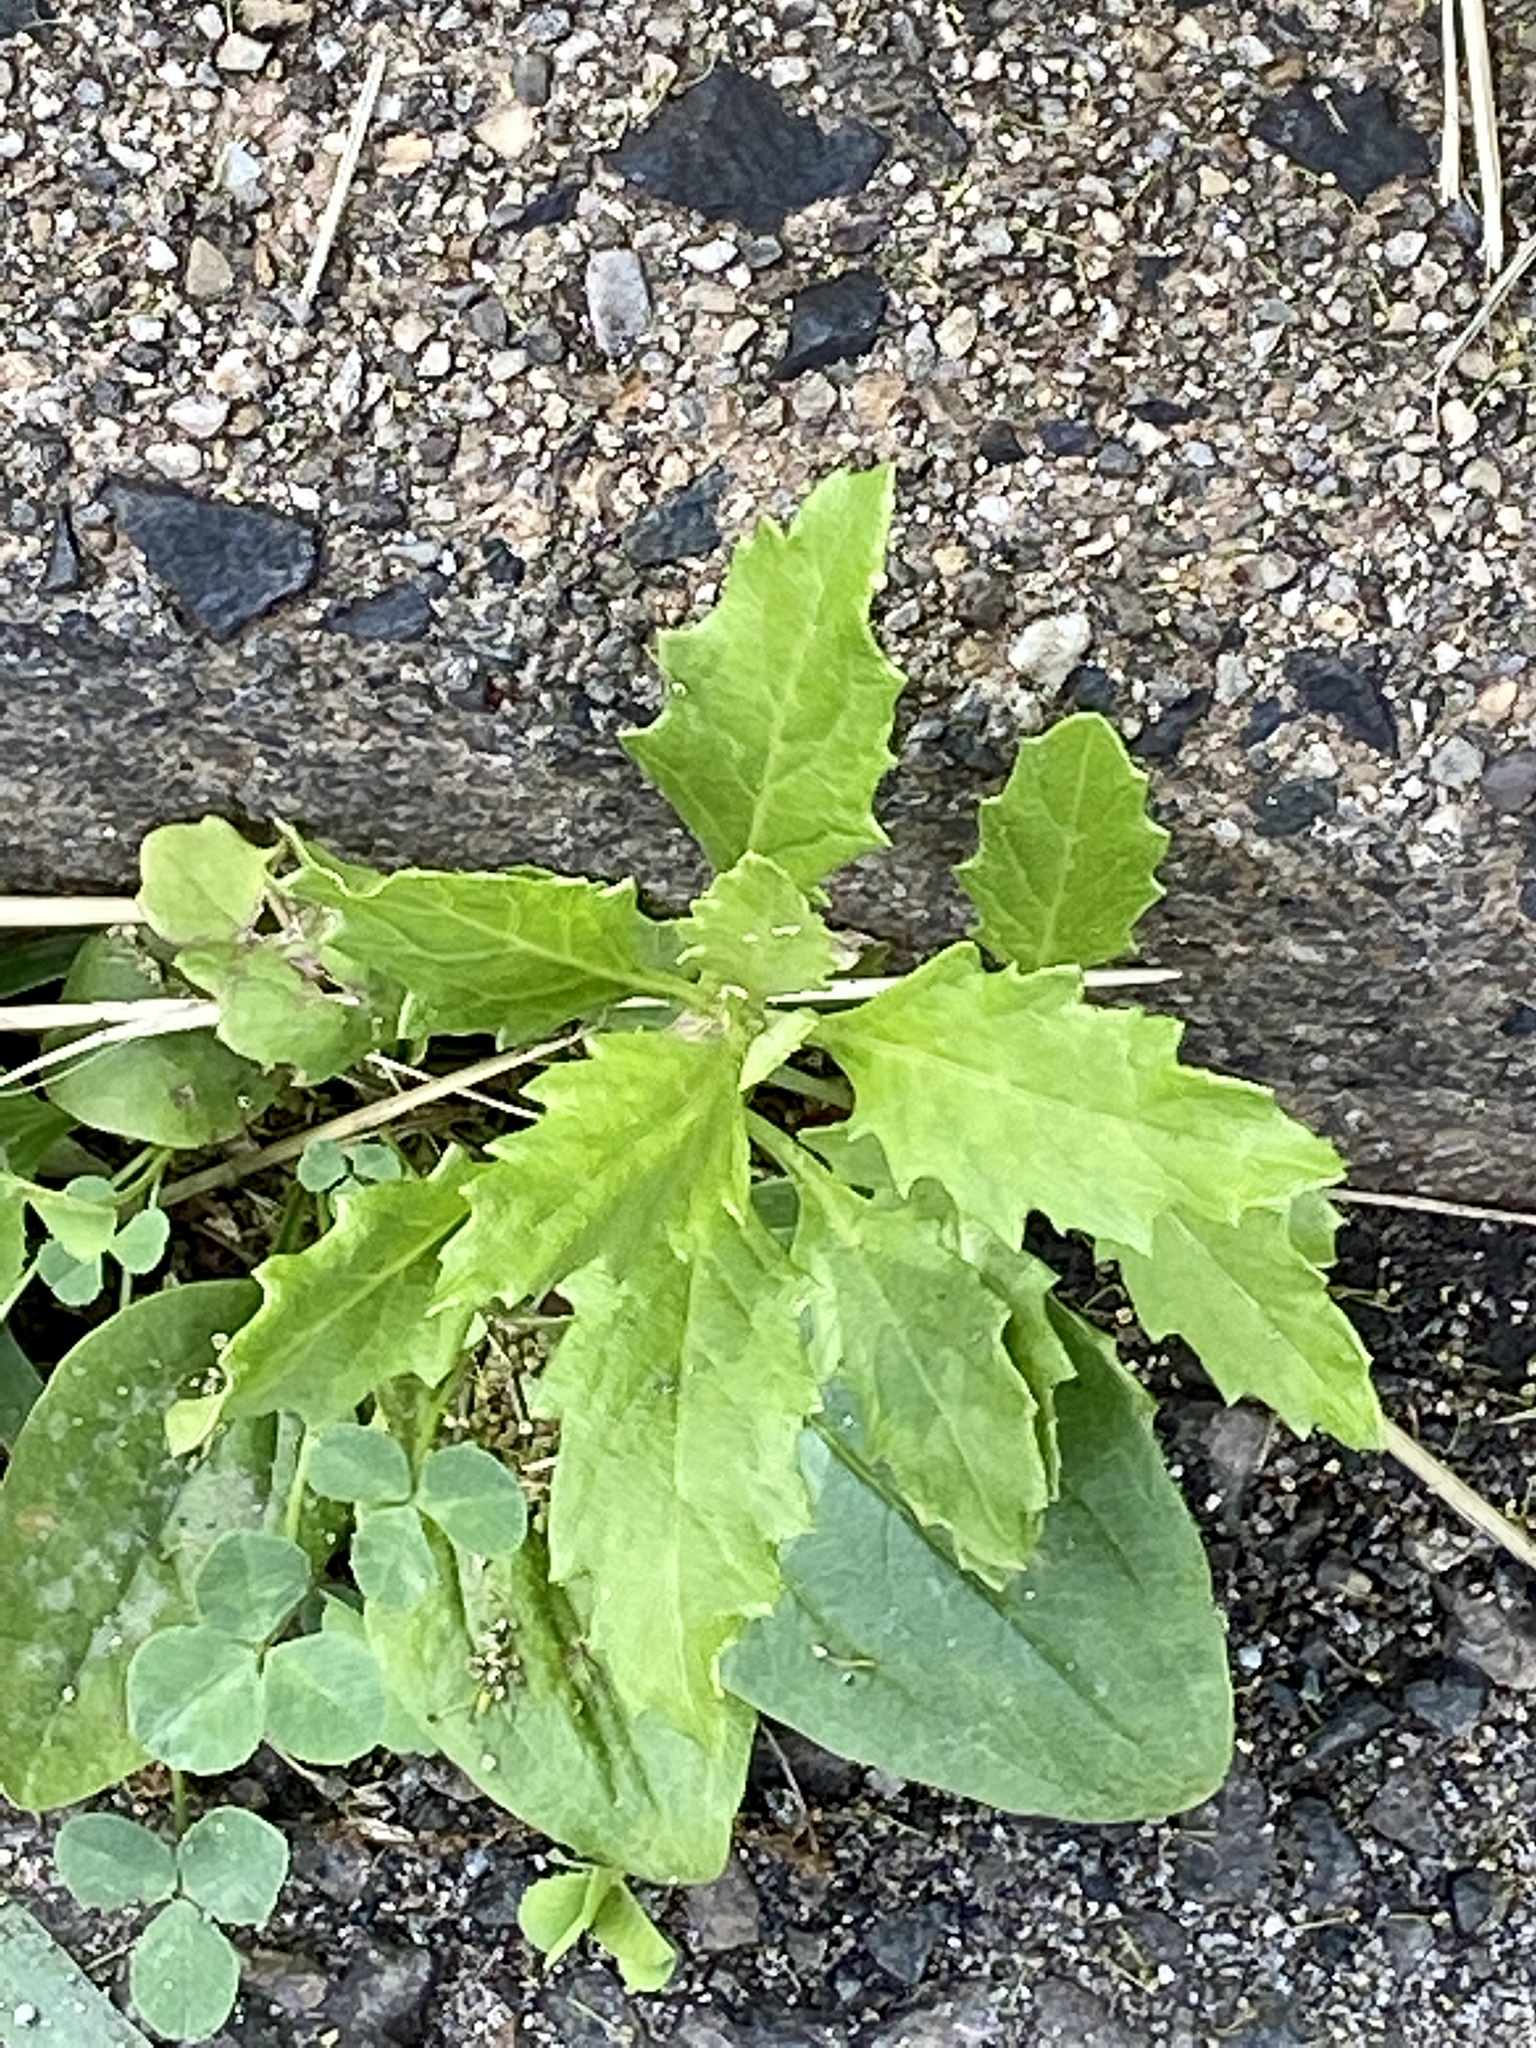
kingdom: Plantae
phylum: Tracheophyta
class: Magnoliopsida
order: Caryophyllales
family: Amaranthaceae
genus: Dysphania
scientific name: Dysphania ambrosioides
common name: Wormseed
